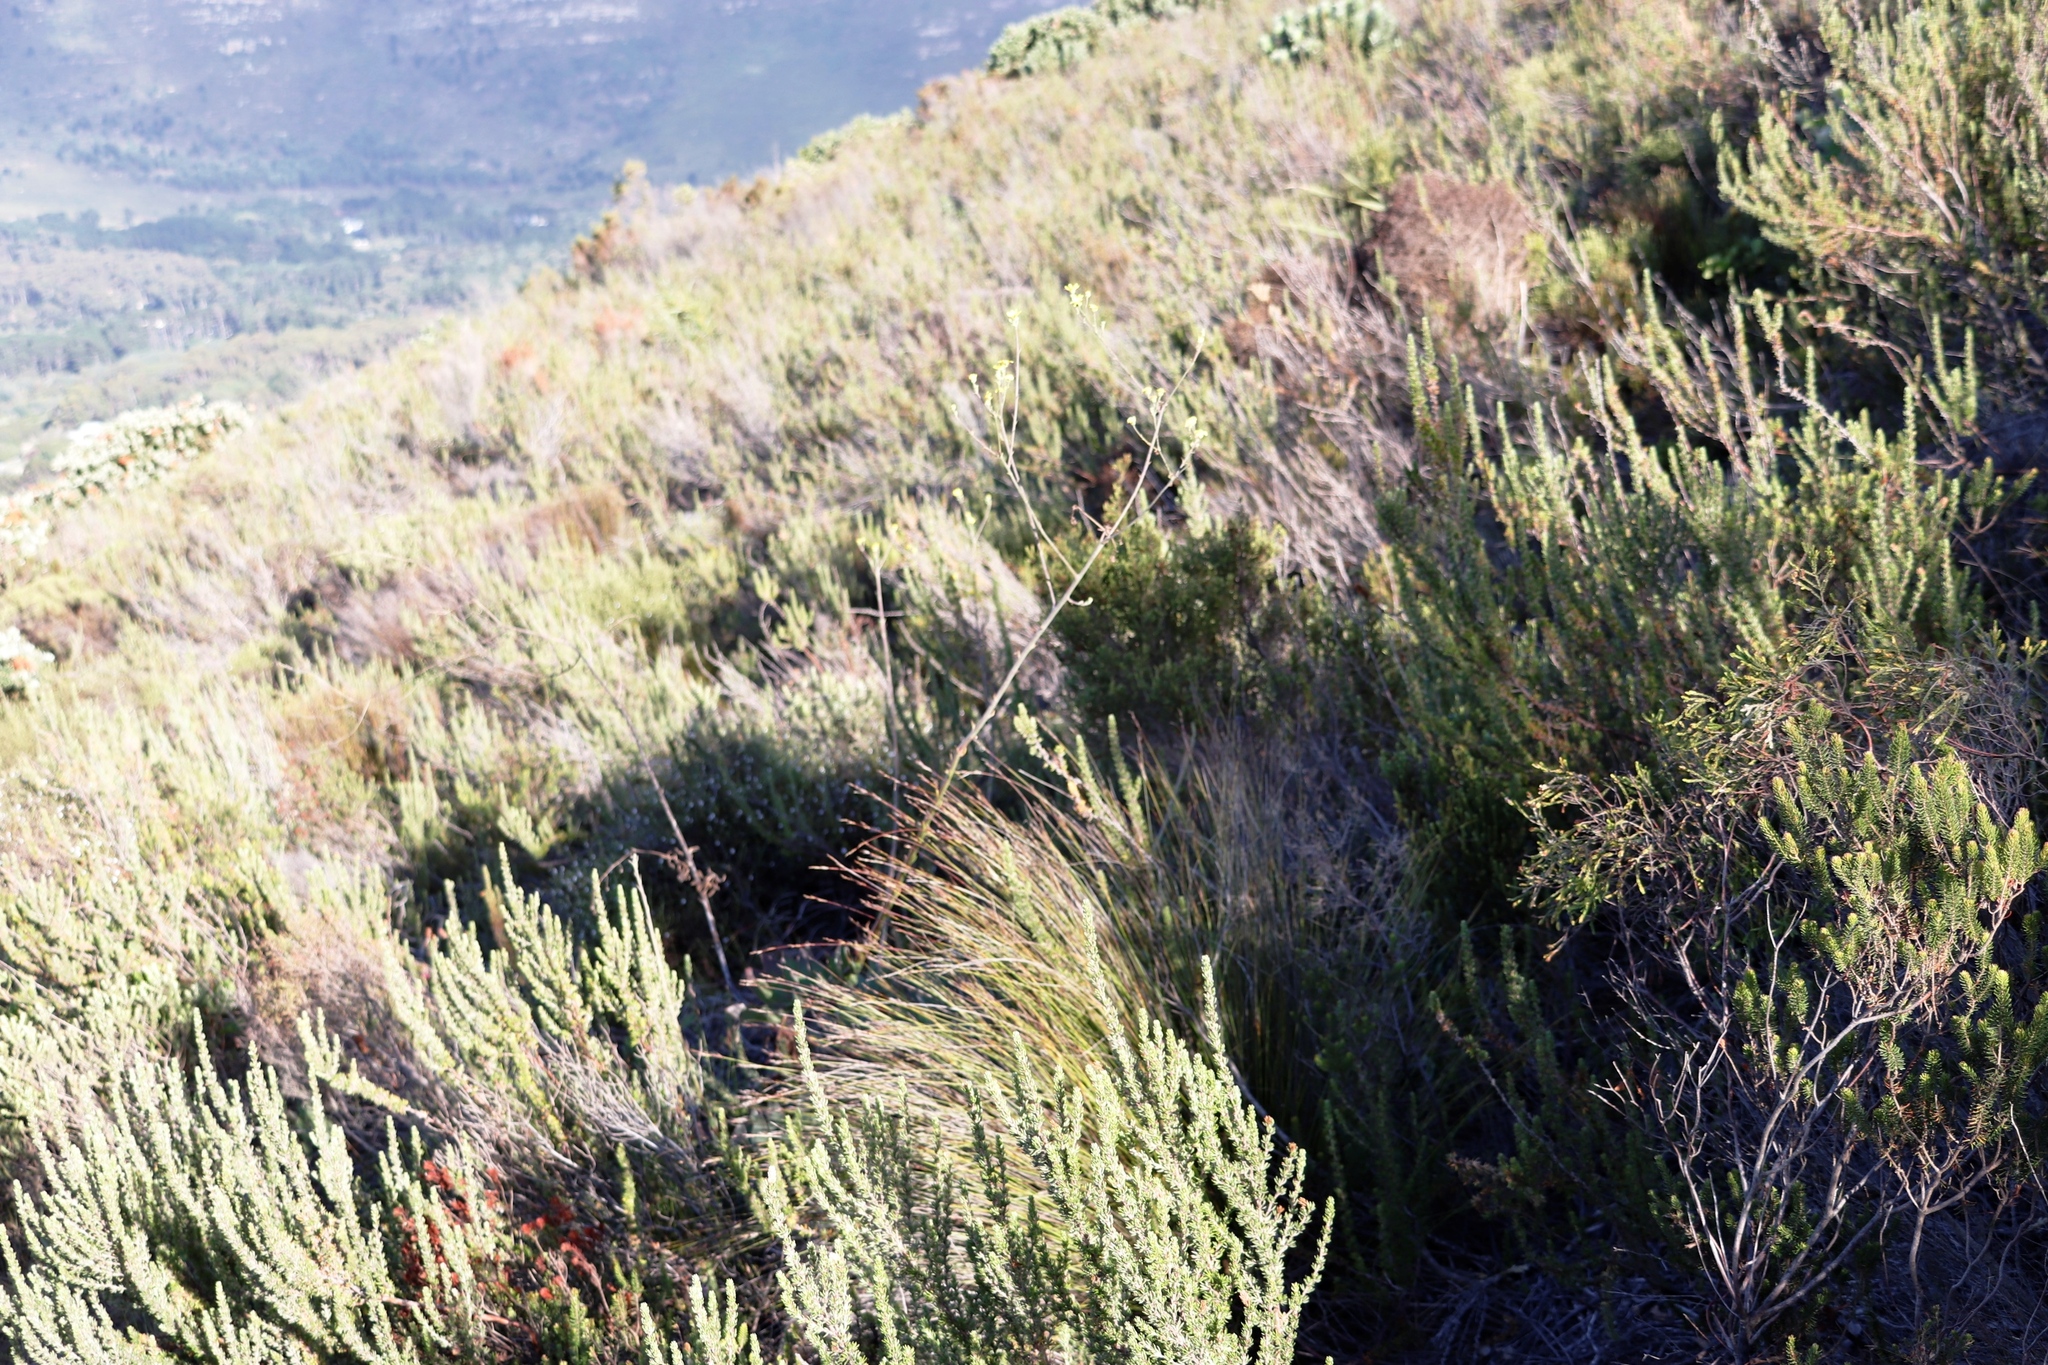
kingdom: Plantae
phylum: Tracheophyta
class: Magnoliopsida
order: Asterales
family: Asteraceae
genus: Othonna
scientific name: Othonna quinquedentata
